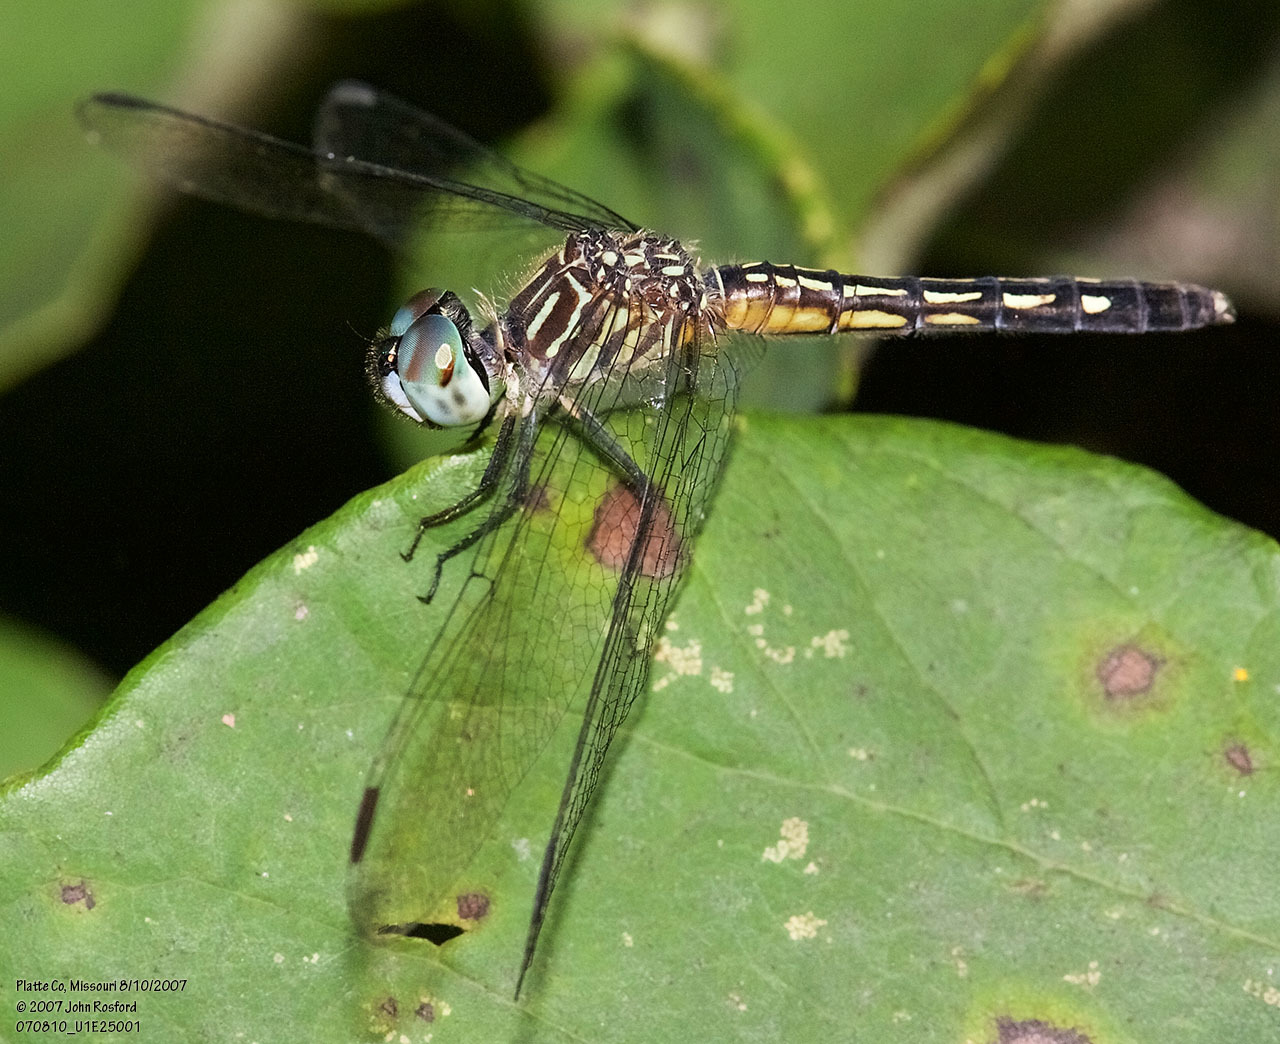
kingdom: Animalia
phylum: Arthropoda
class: Insecta
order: Odonata
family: Libellulidae
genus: Pachydiplax
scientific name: Pachydiplax longipennis
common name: Blue dasher
